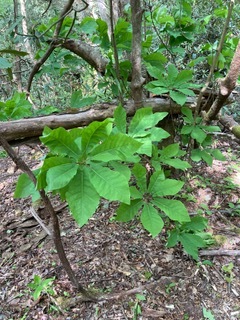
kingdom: Plantae
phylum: Tracheophyta
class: Magnoliopsida
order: Magnoliales
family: Magnoliaceae
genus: Magnolia
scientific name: Magnolia fraseri
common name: Fraser's magnolia
